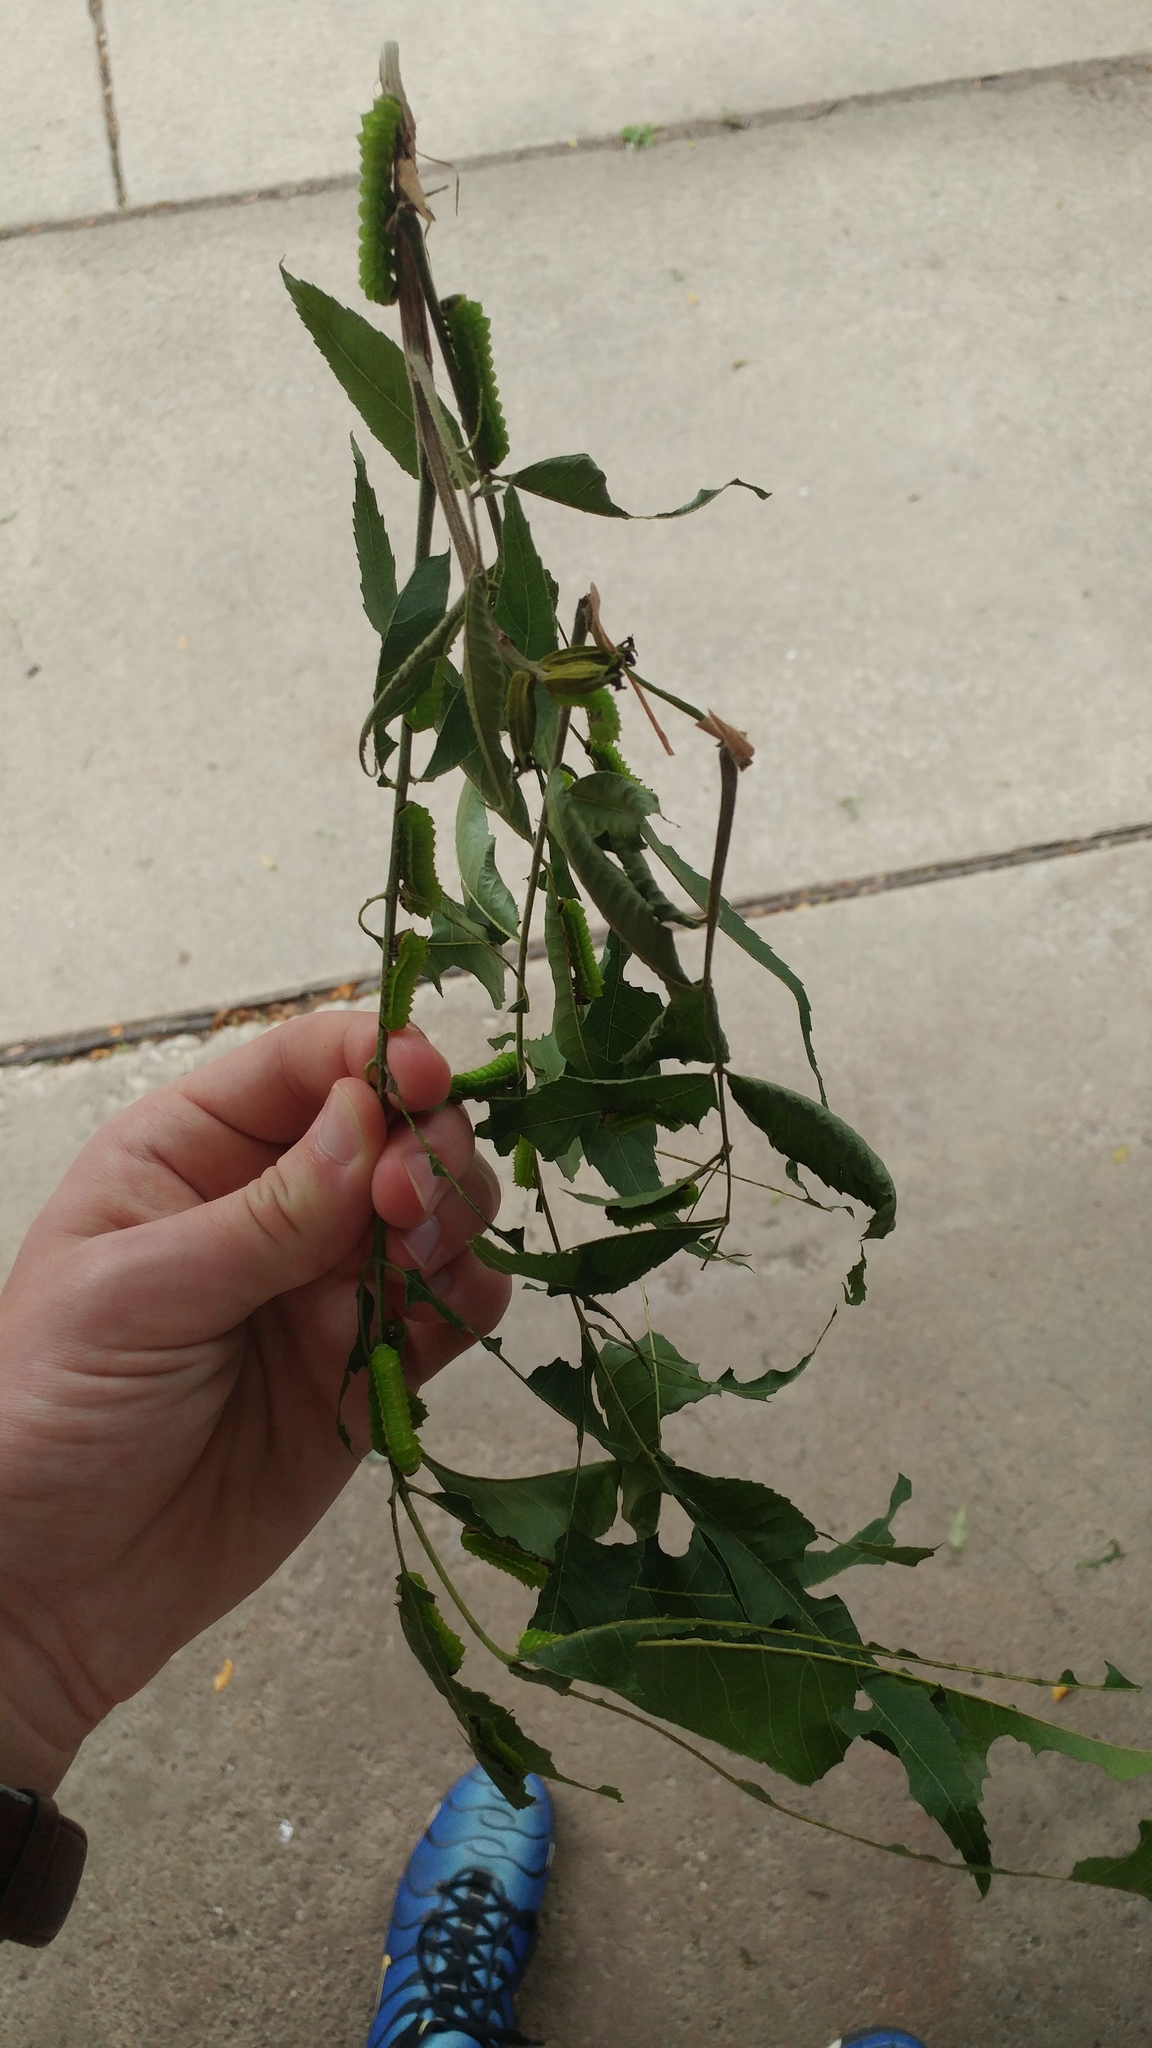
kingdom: Animalia
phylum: Arthropoda
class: Insecta
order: Lepidoptera
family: Saturniidae
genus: Actias
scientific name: Actias luna
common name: Luna moth
